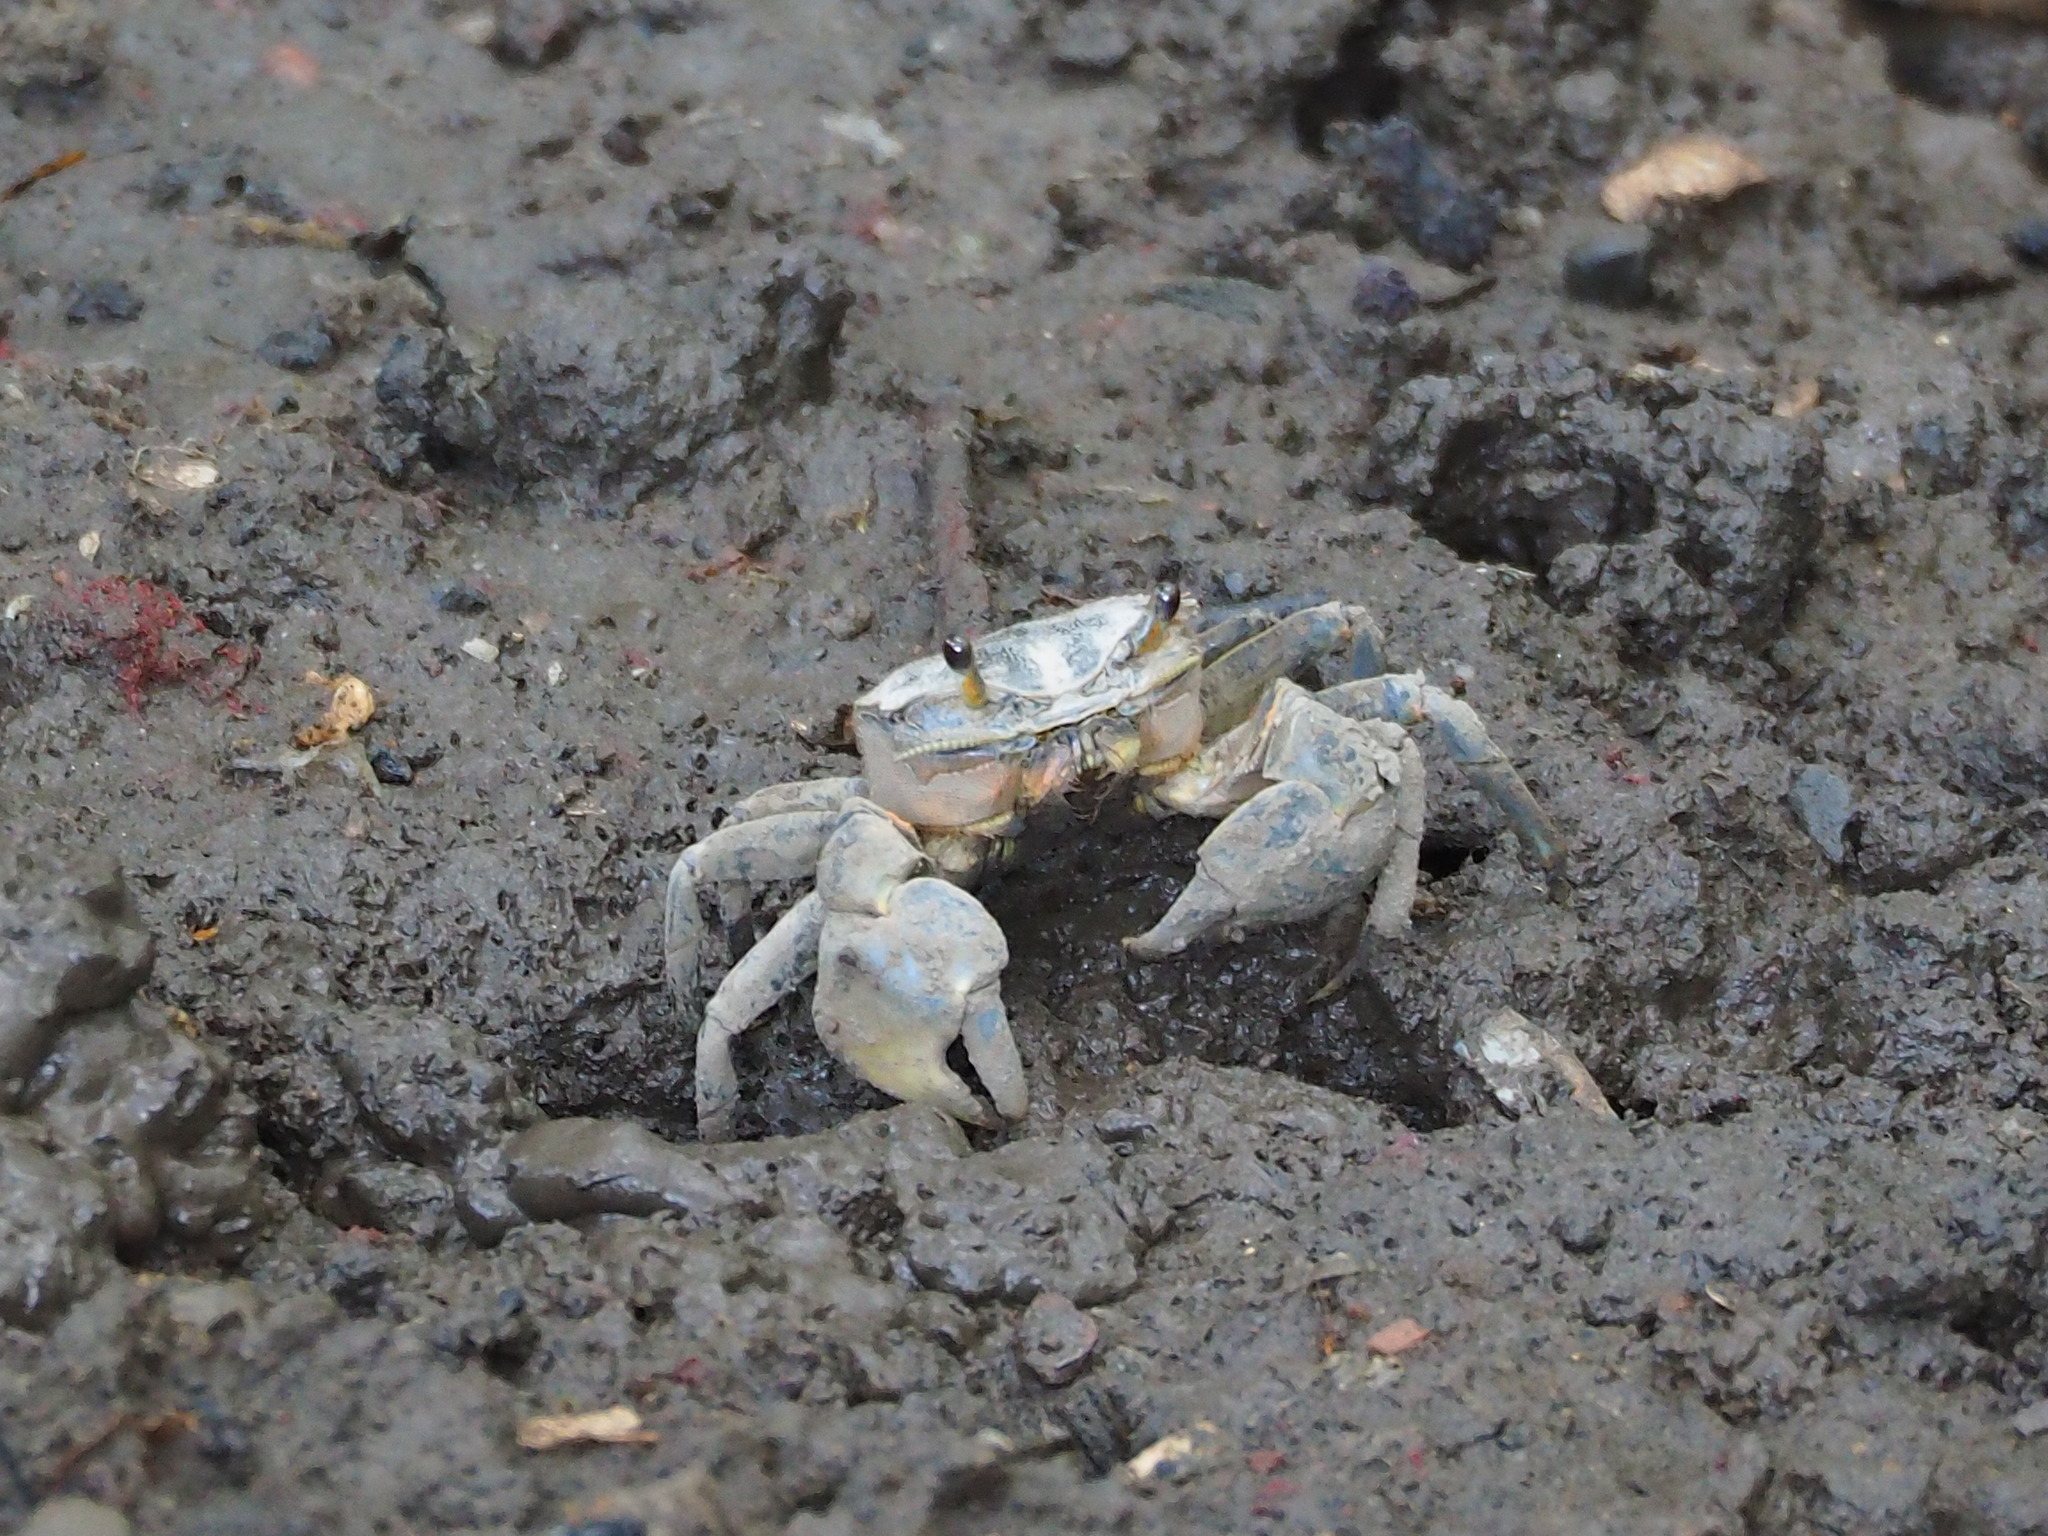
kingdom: Animalia
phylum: Arthropoda
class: Malacostraca
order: Decapoda
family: Varunidae
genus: Helice
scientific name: Helice formosensis
